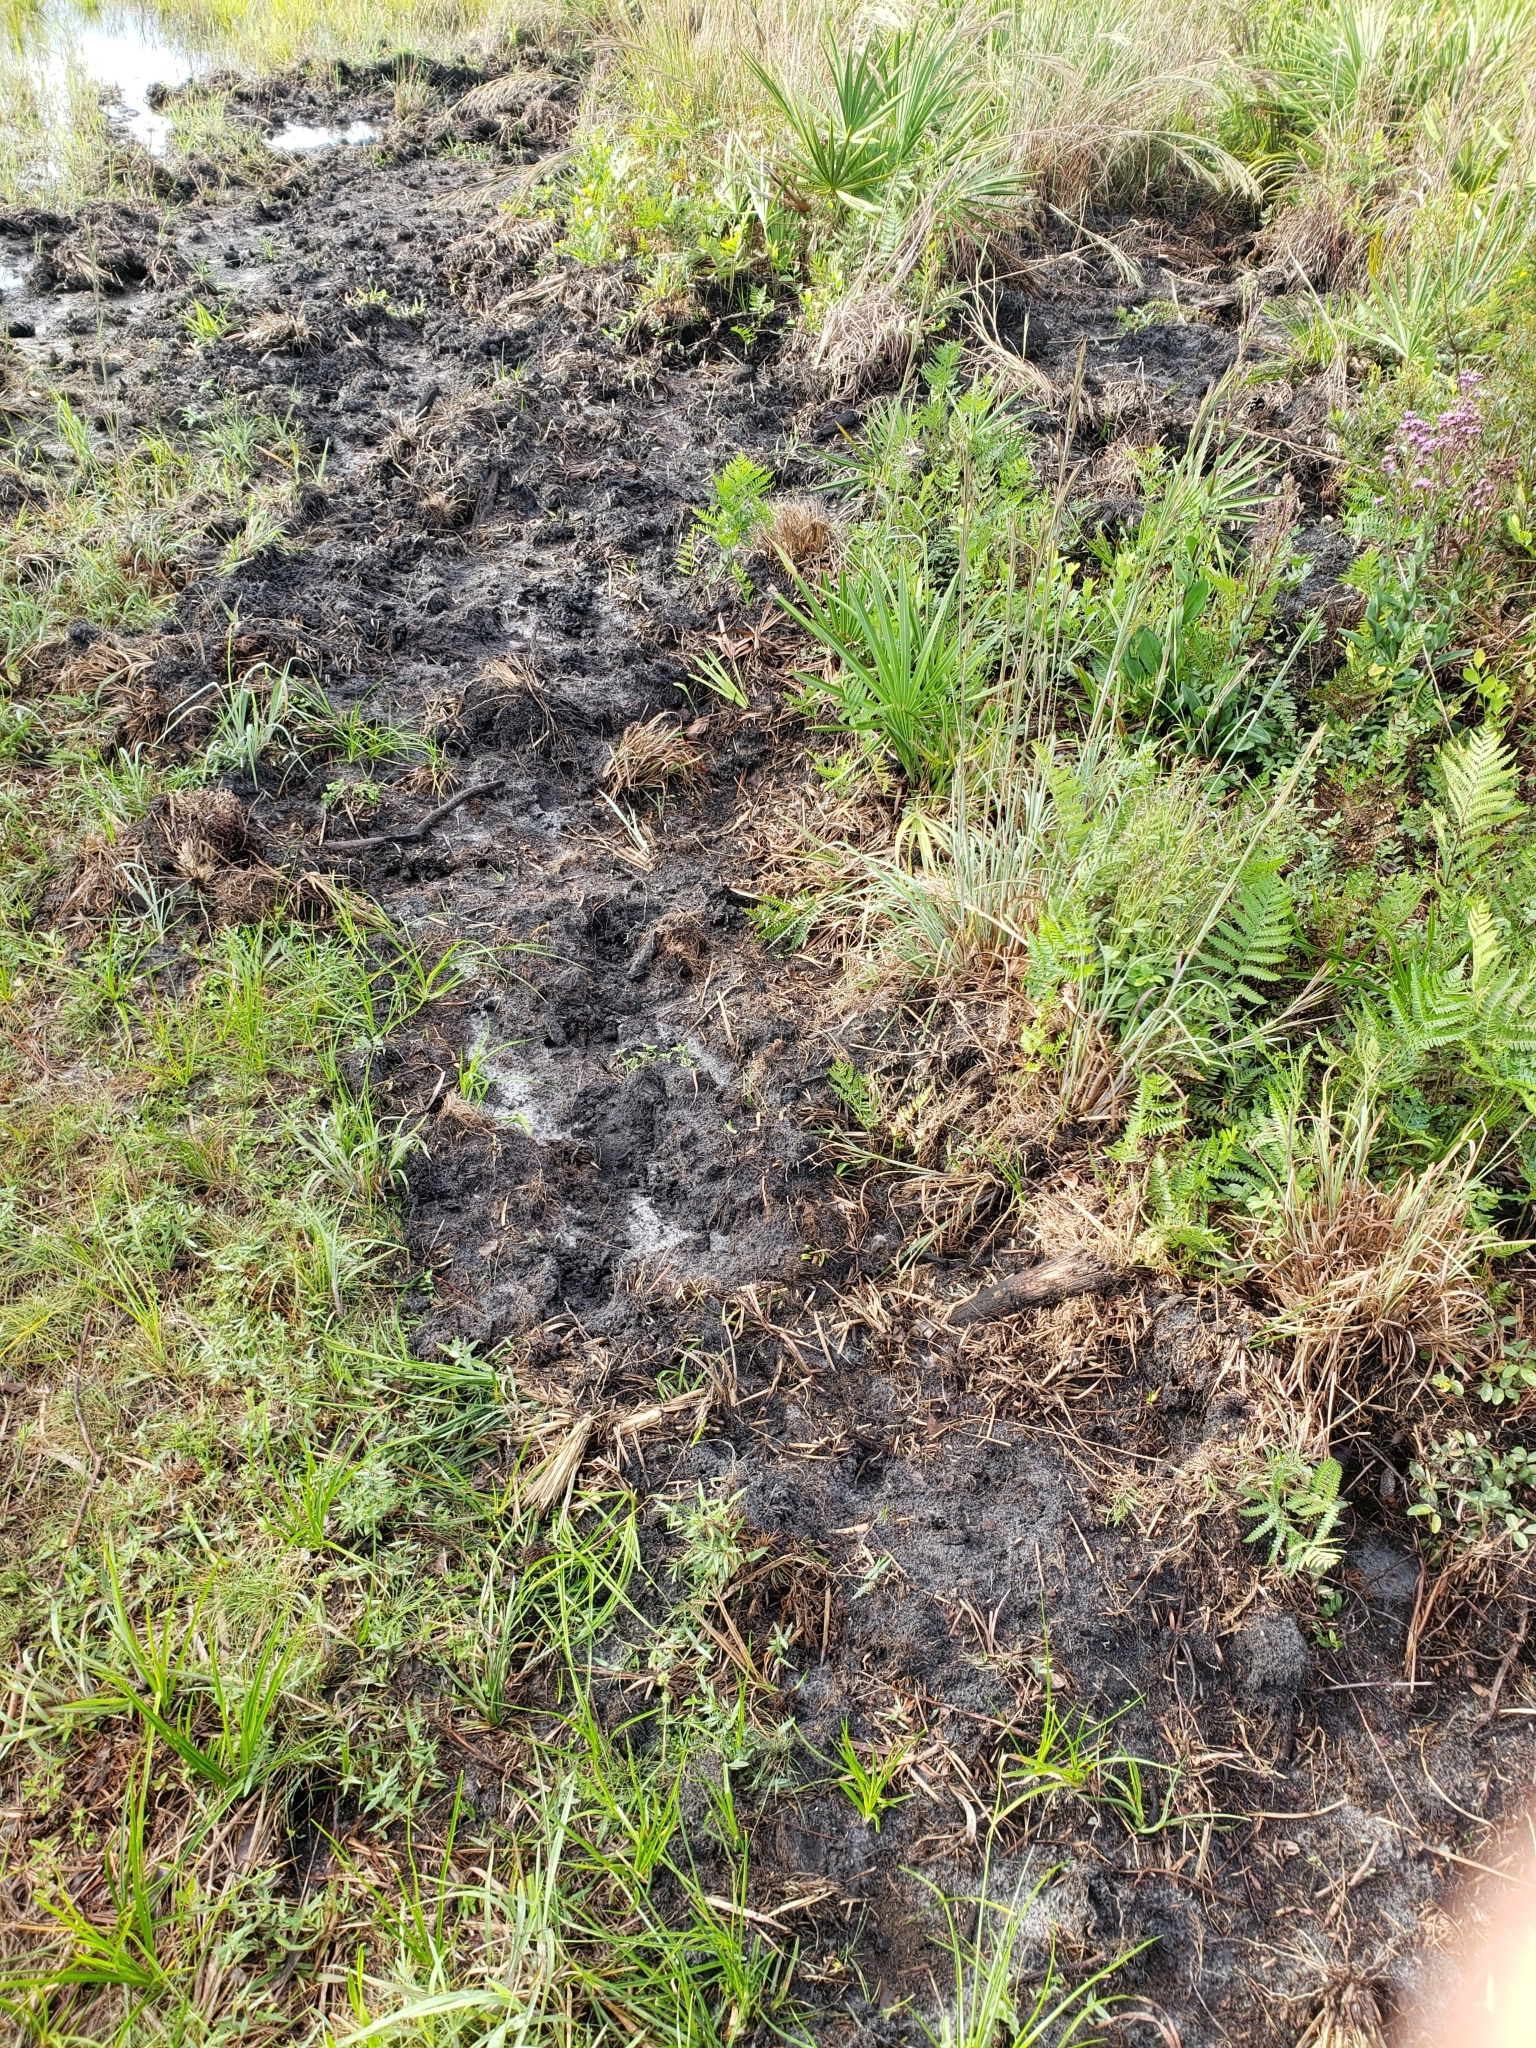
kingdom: Animalia
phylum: Chordata
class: Mammalia
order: Artiodactyla
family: Suidae
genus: Sus
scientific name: Sus scrofa
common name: Wild boar
